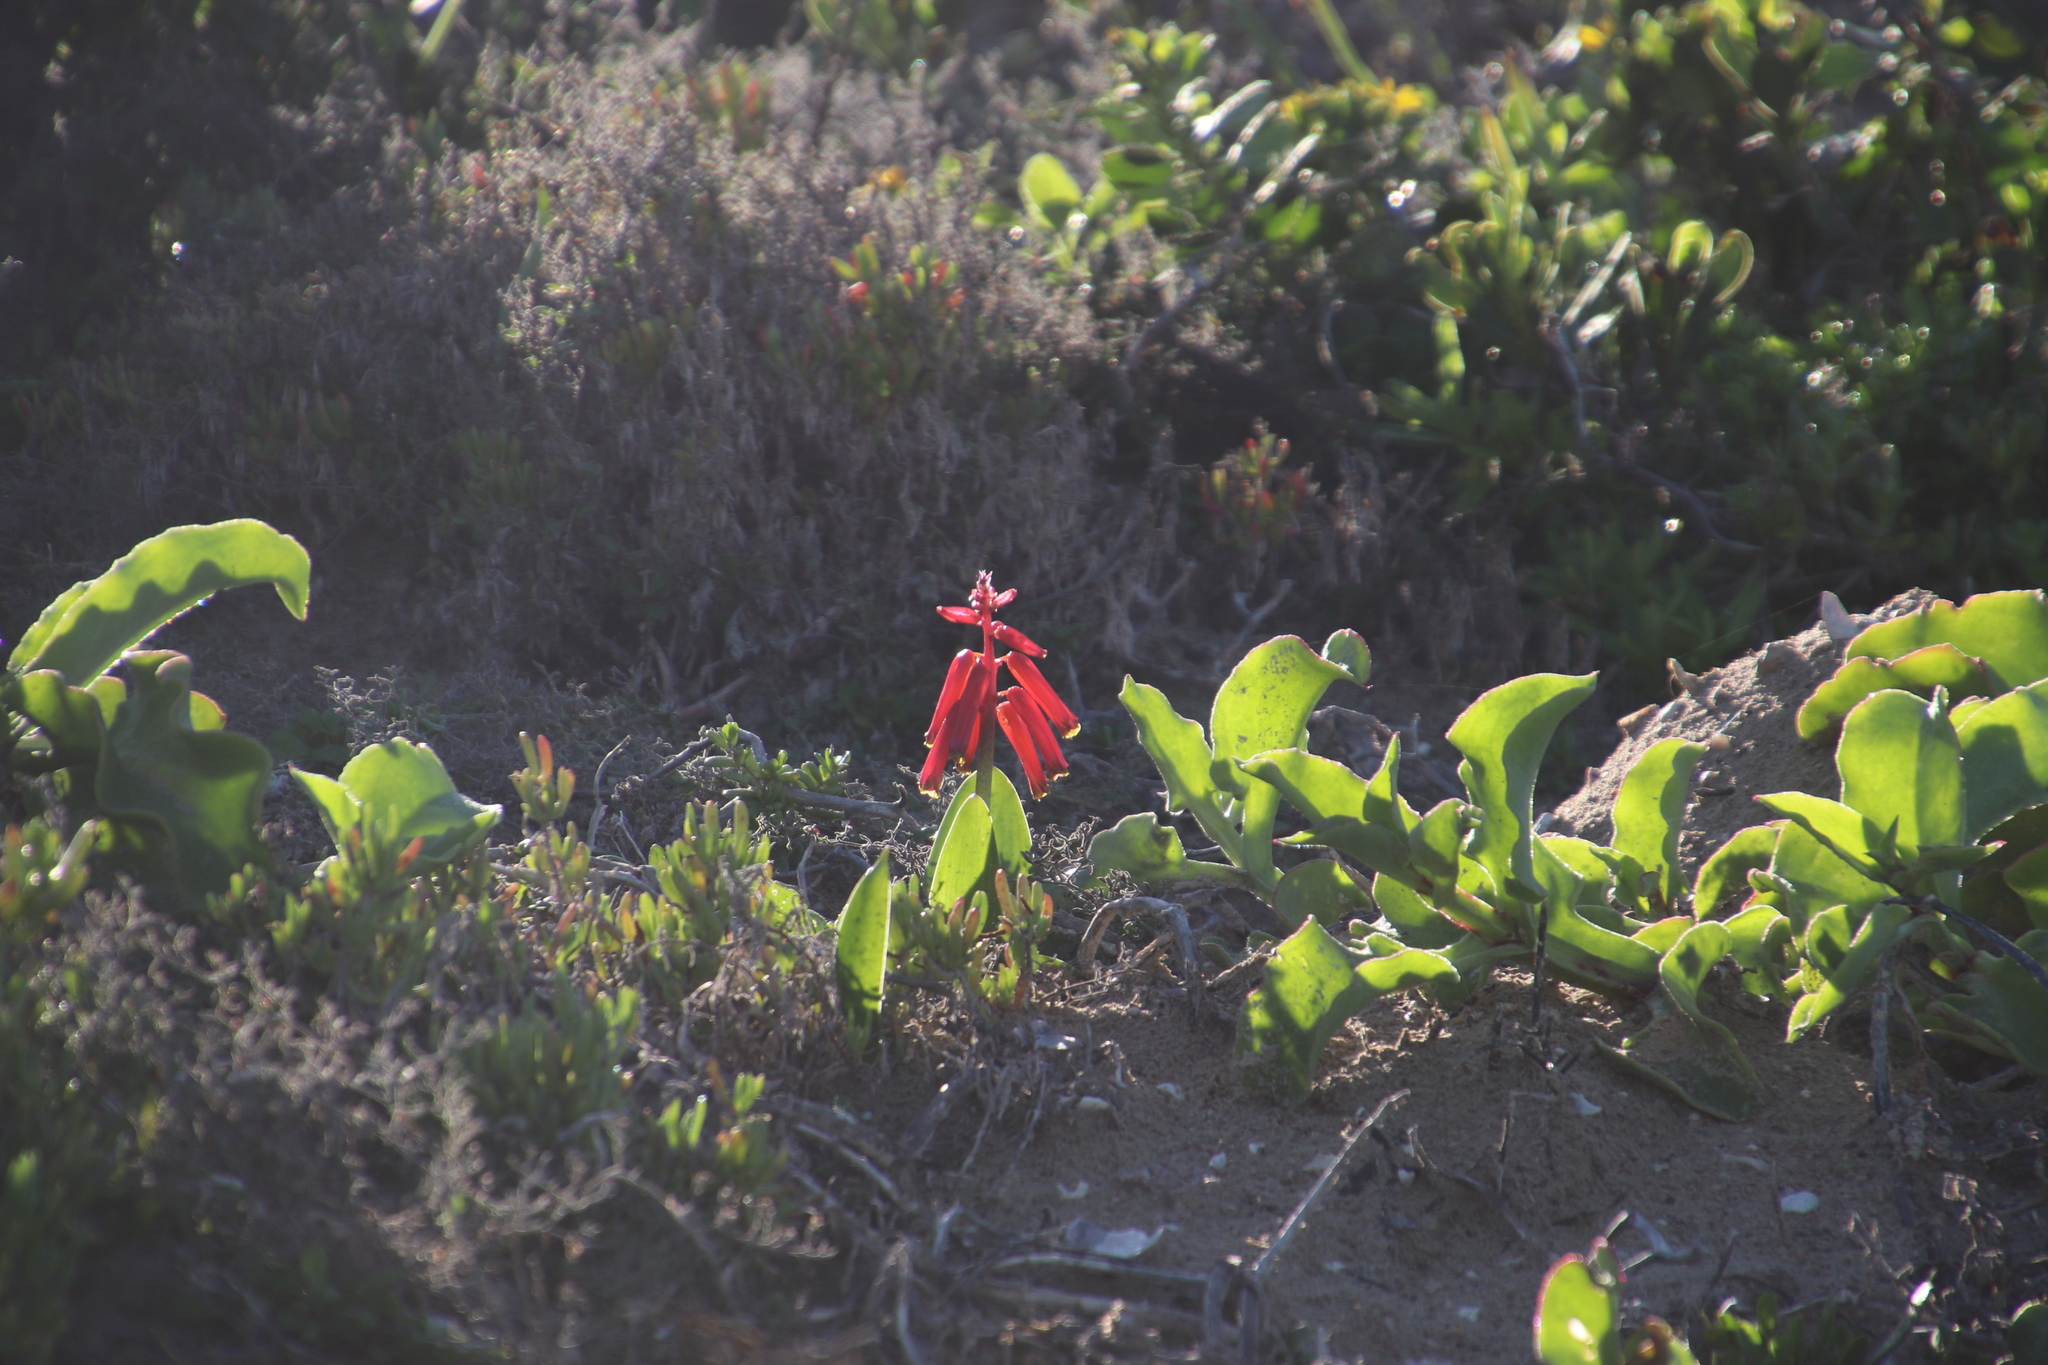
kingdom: Plantae
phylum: Tracheophyta
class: Liliopsida
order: Asparagales
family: Asparagaceae
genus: Lachenalia
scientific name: Lachenalia bulbifera
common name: Red lachenalia
